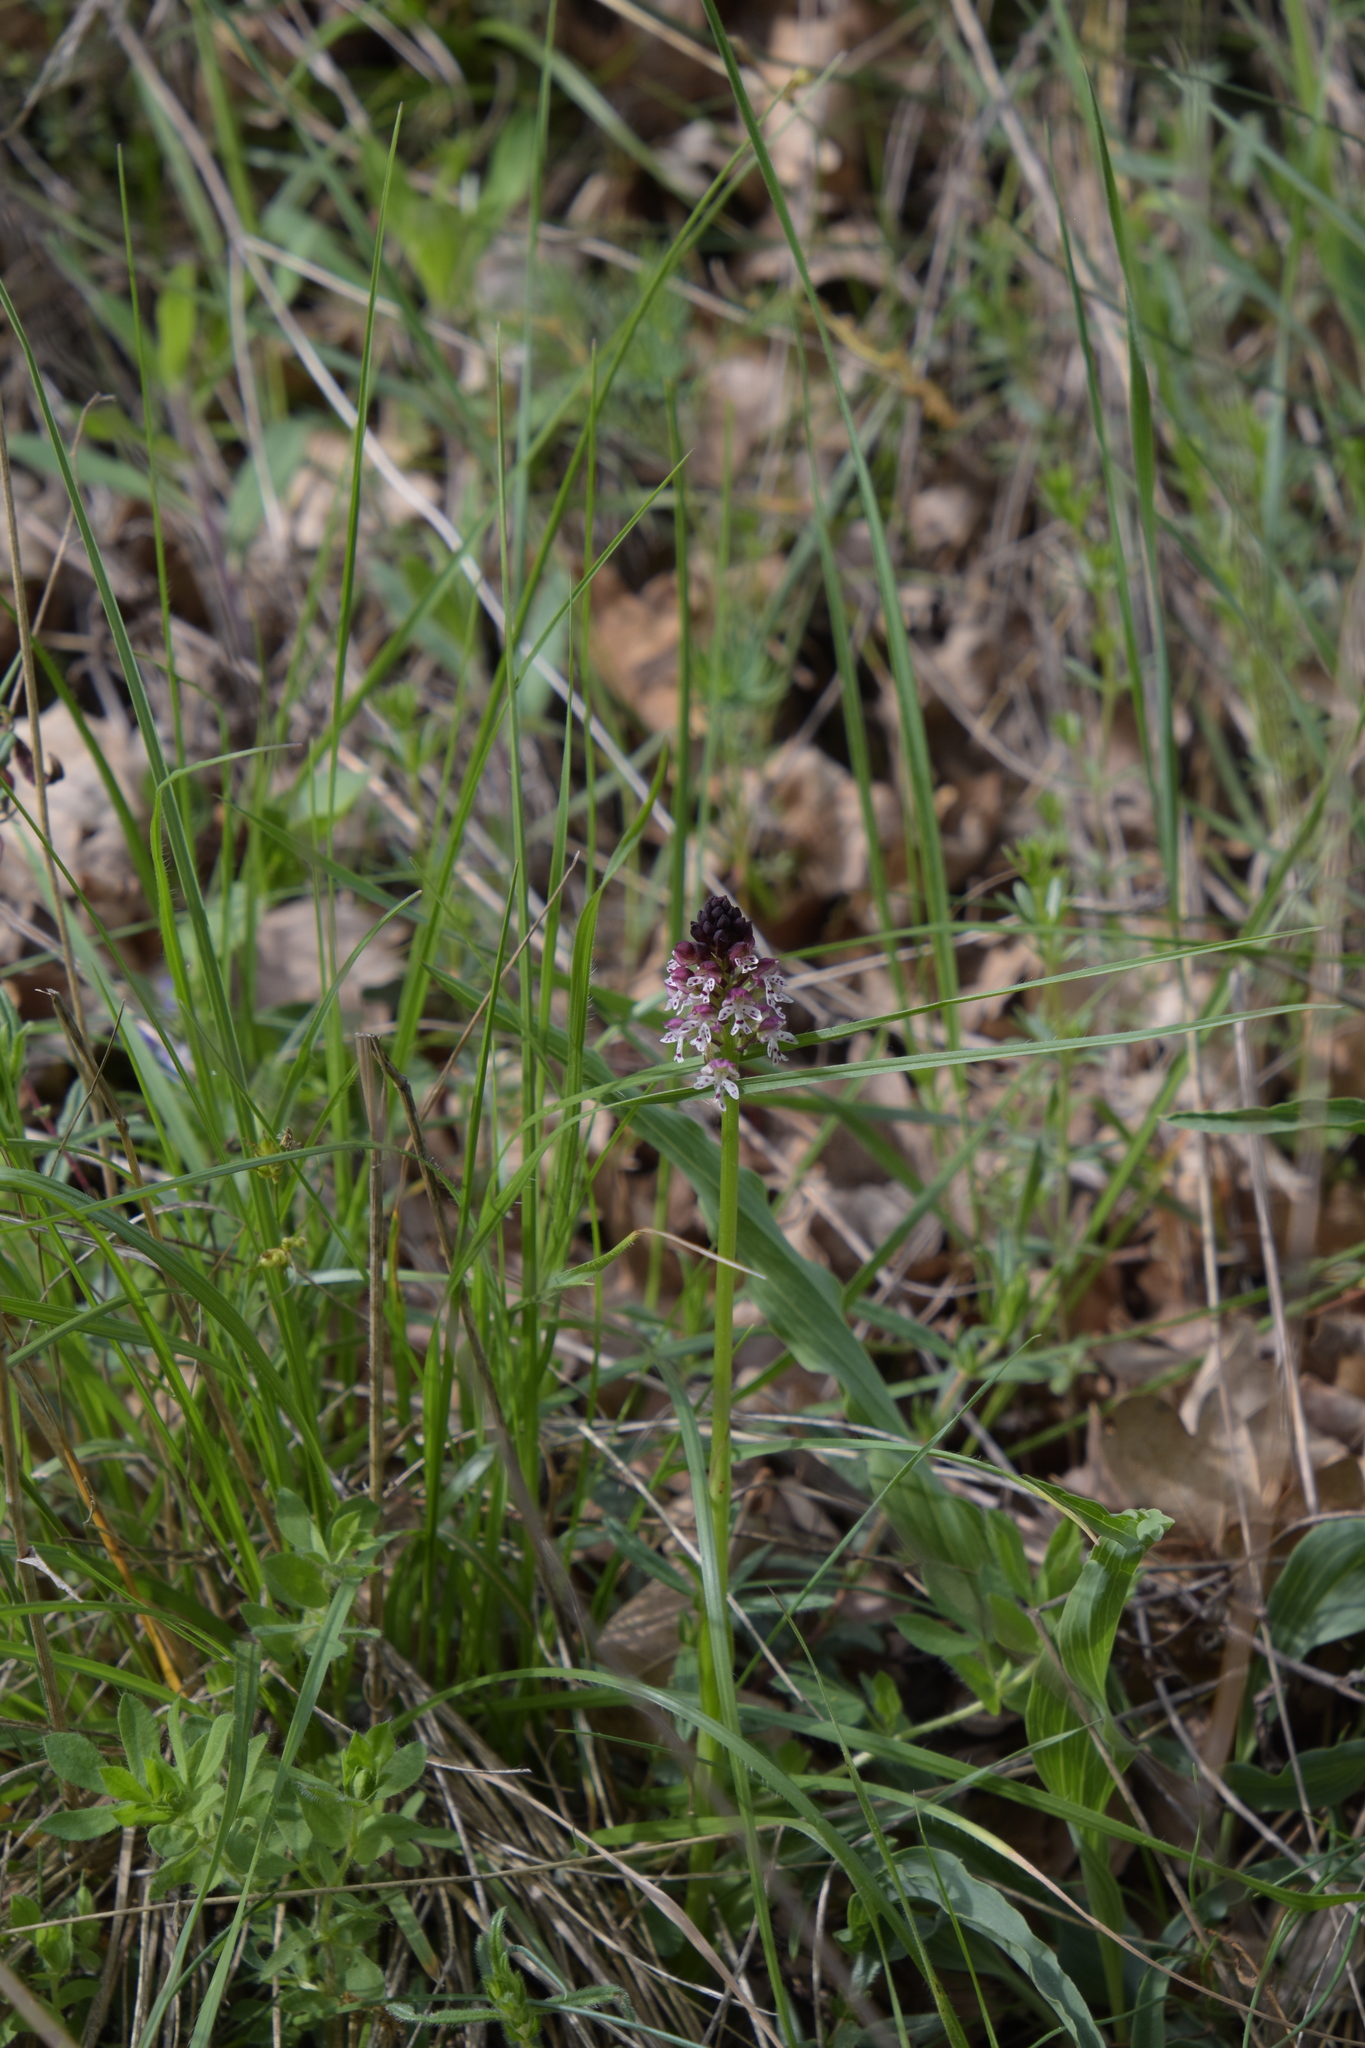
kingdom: Plantae
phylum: Tracheophyta
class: Liliopsida
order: Asparagales
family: Orchidaceae
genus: Neotinea
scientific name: Neotinea ustulata
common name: Burnt orchid
